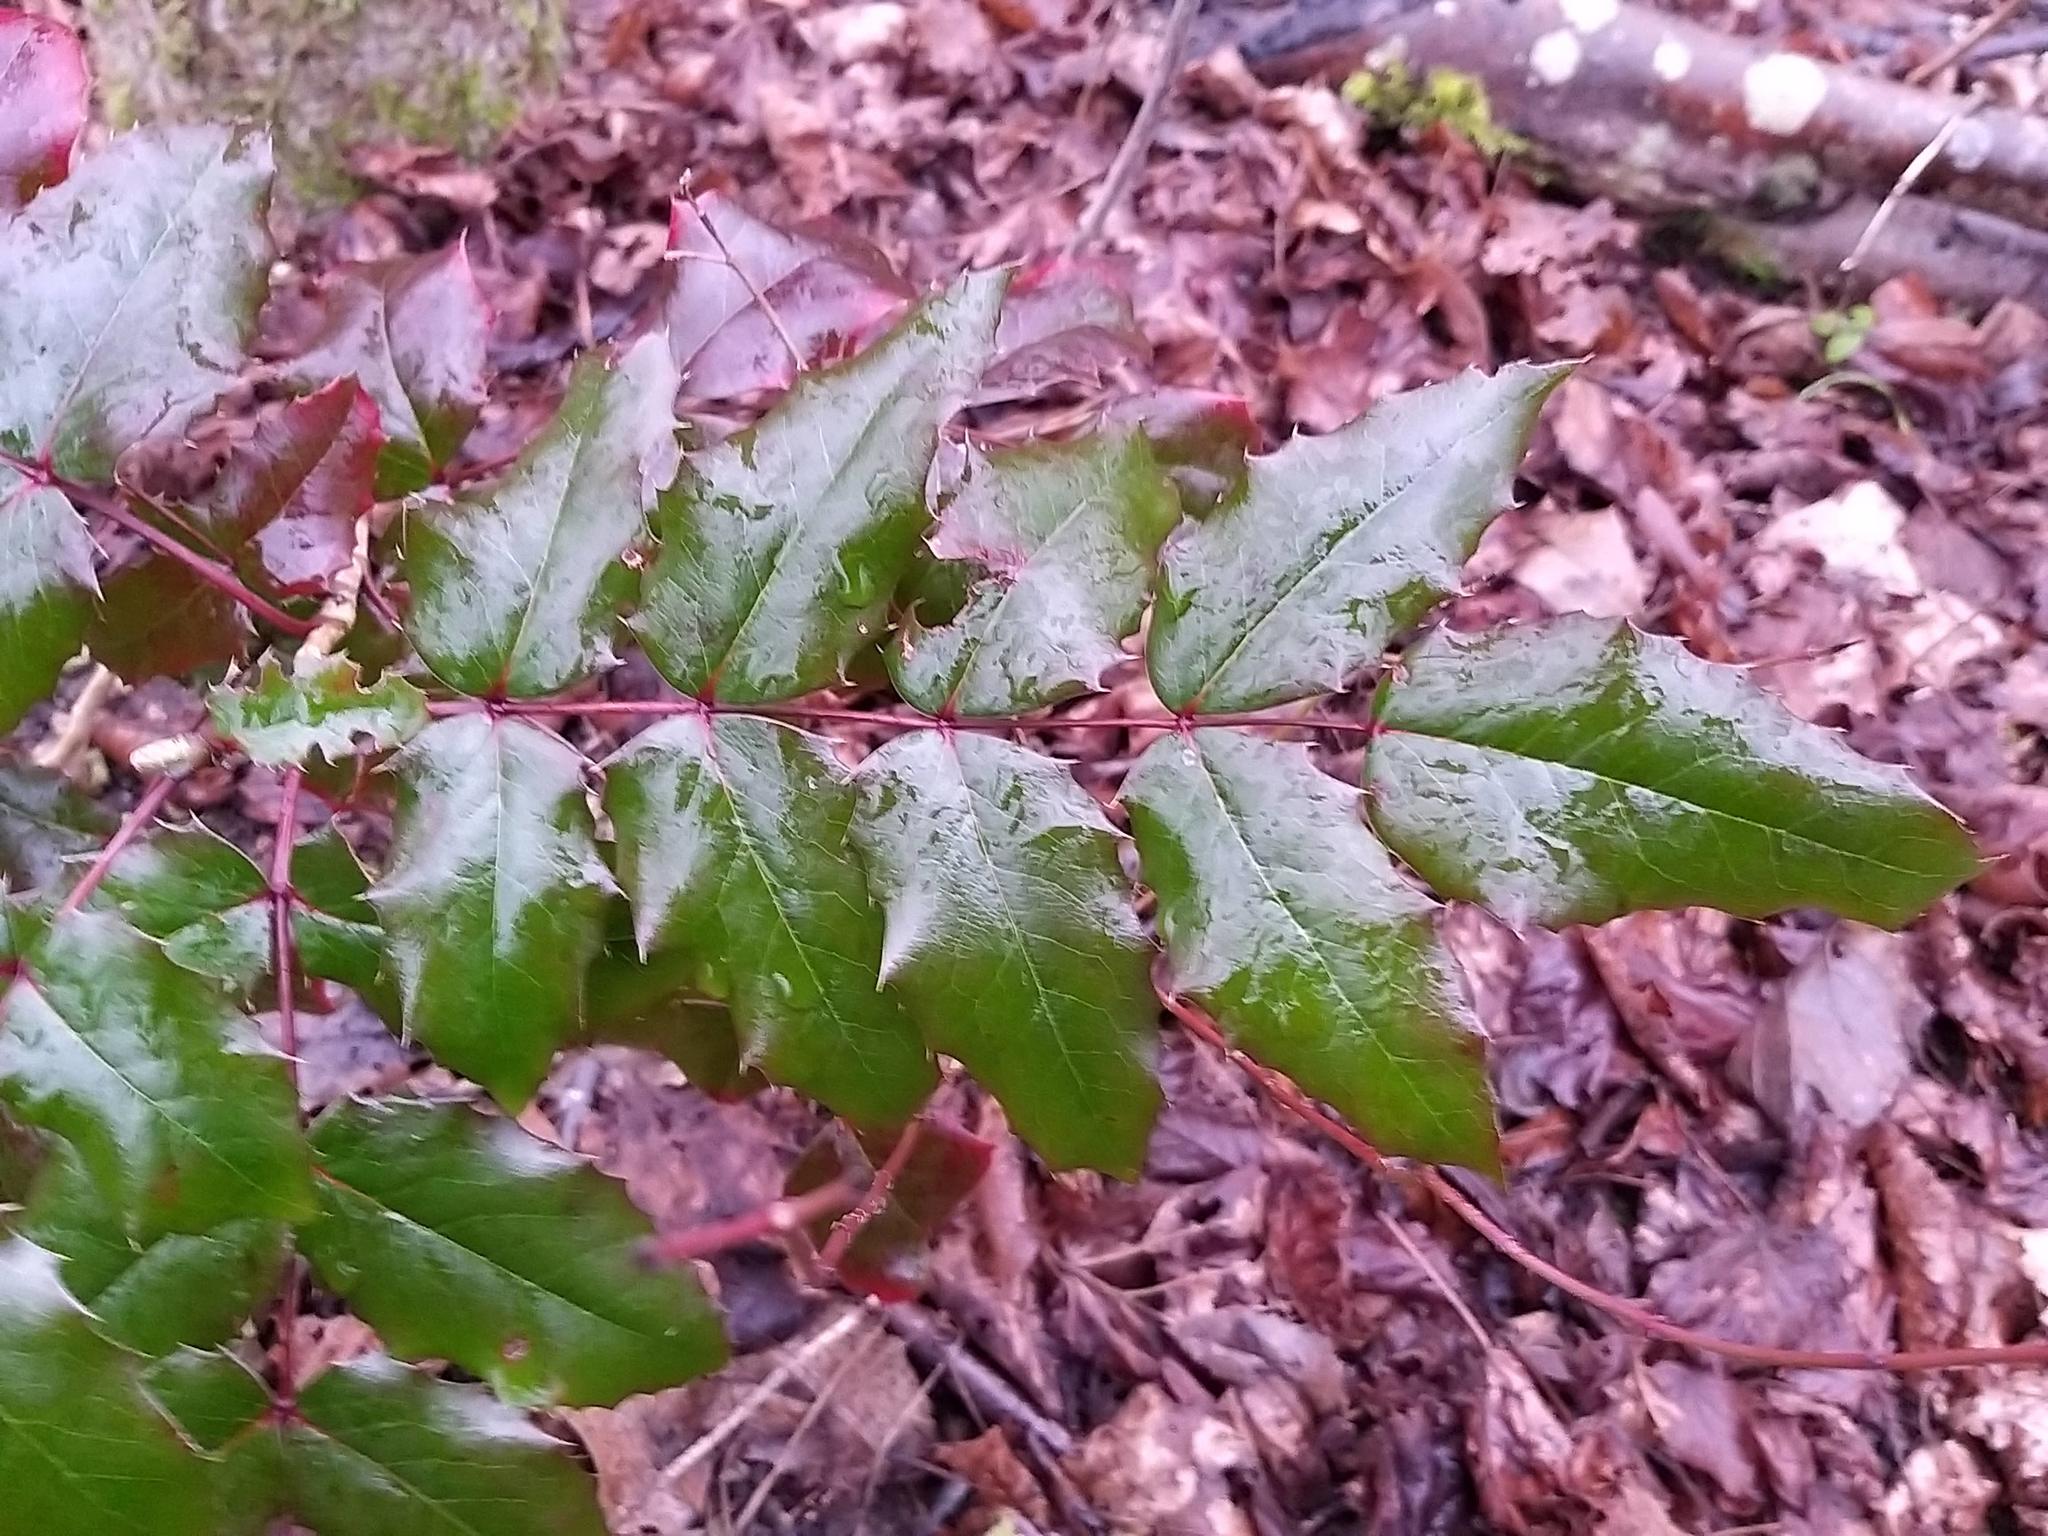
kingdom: Plantae
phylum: Tracheophyta
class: Magnoliopsida
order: Ranunculales
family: Berberidaceae
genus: Mahonia
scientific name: Mahonia aquifolium
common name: Oregon-grape
